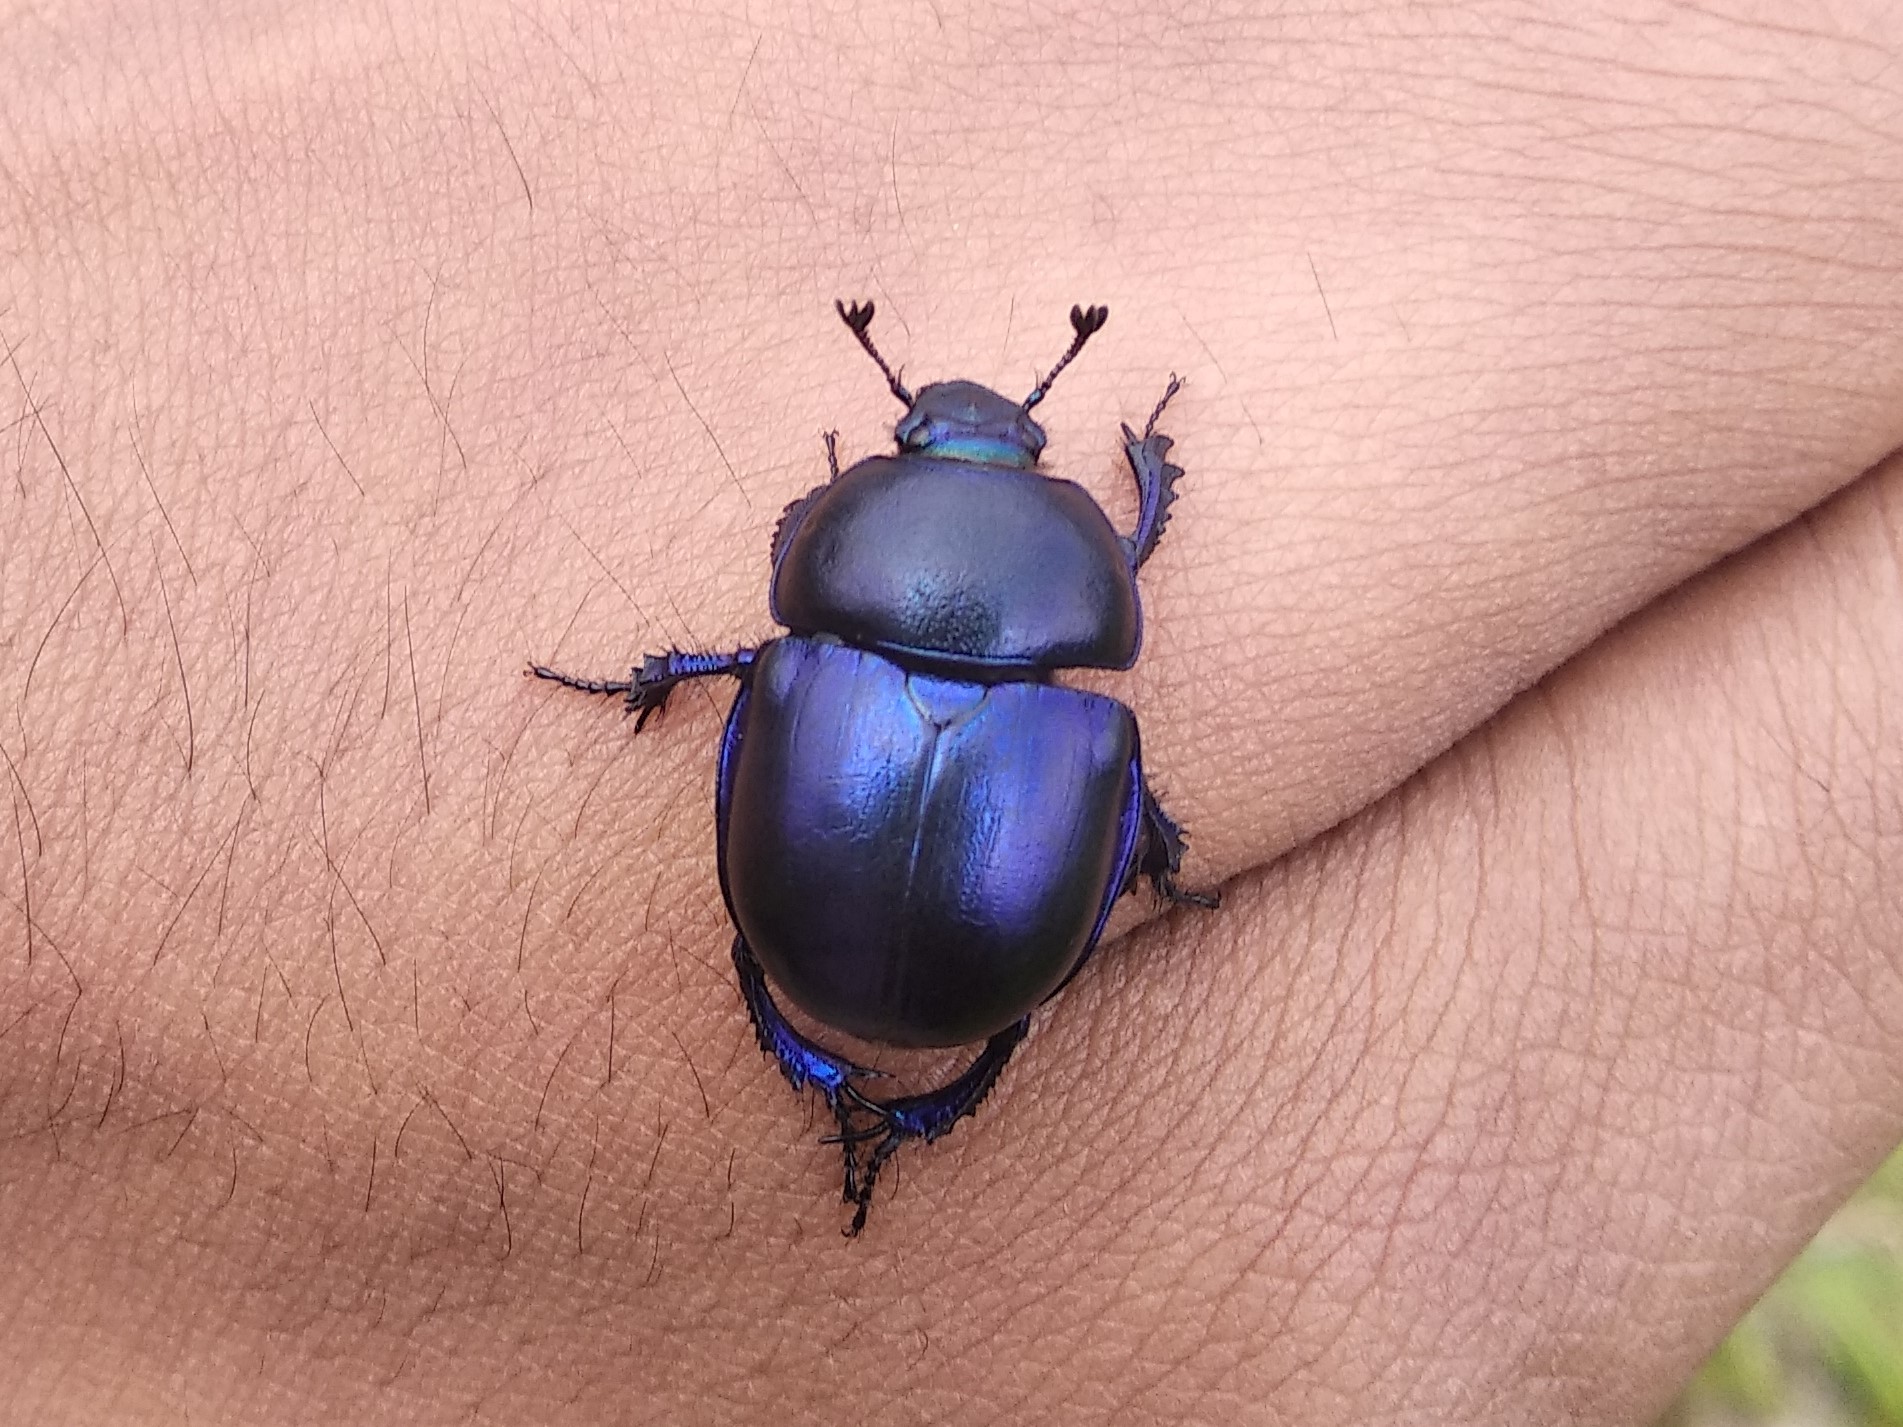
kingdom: Animalia
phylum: Arthropoda
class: Insecta
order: Coleoptera
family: Geotrupidae
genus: Trypocopris
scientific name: Trypocopris vernalis
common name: Spring dumbledor
